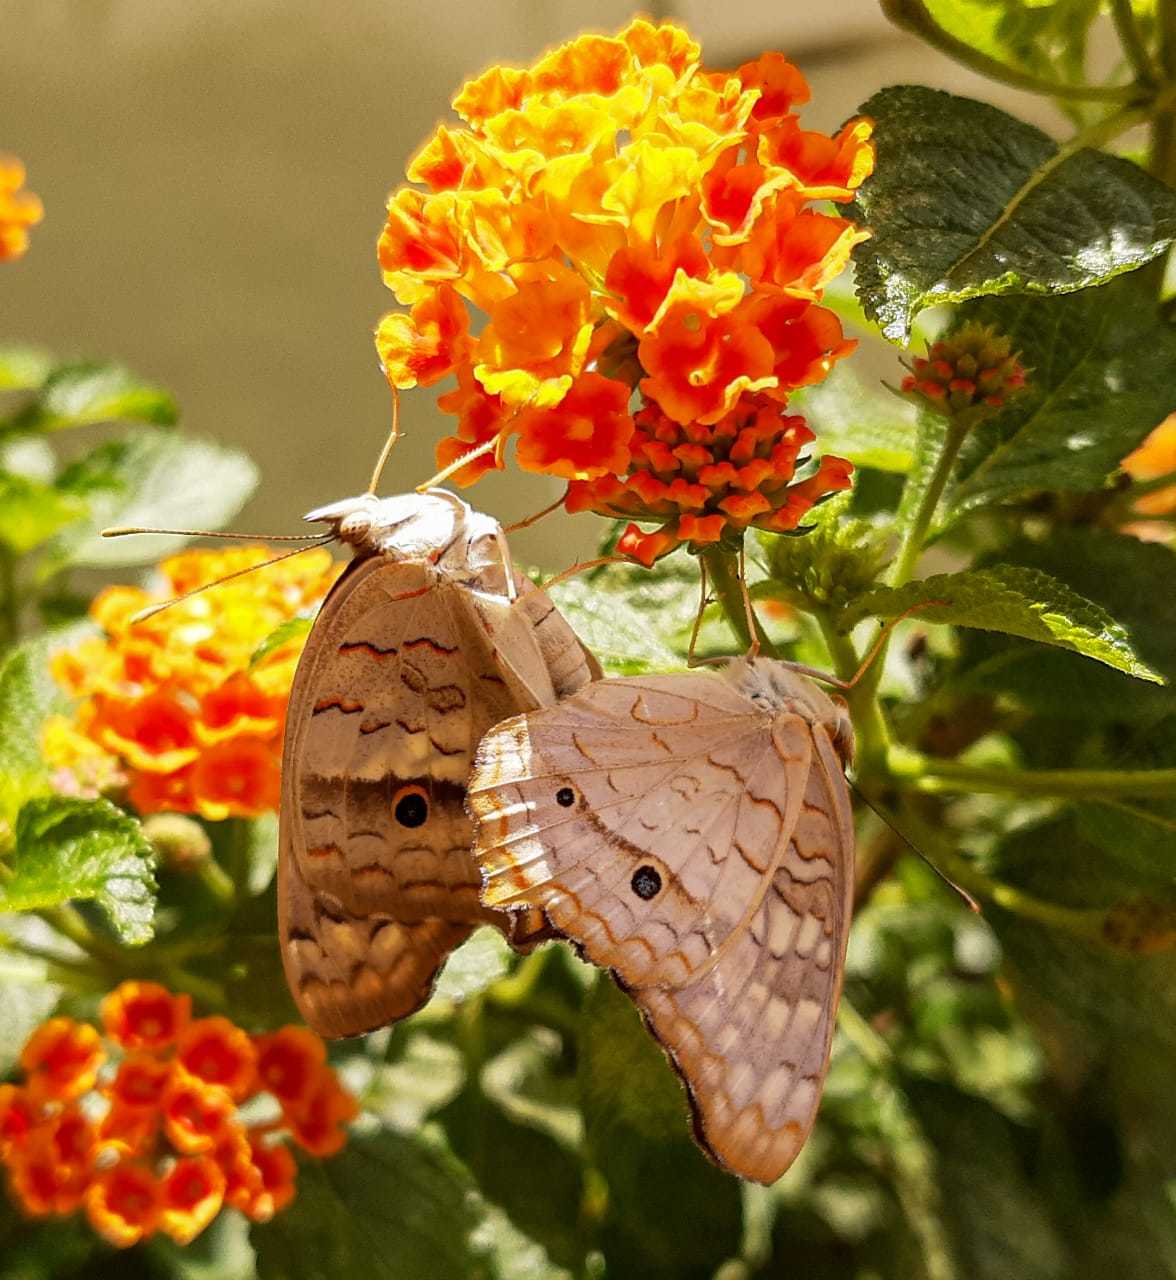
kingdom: Animalia
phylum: Arthropoda
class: Insecta
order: Lepidoptera
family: Nymphalidae
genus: Anartia
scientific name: Anartia jatrophae
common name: White peacock
